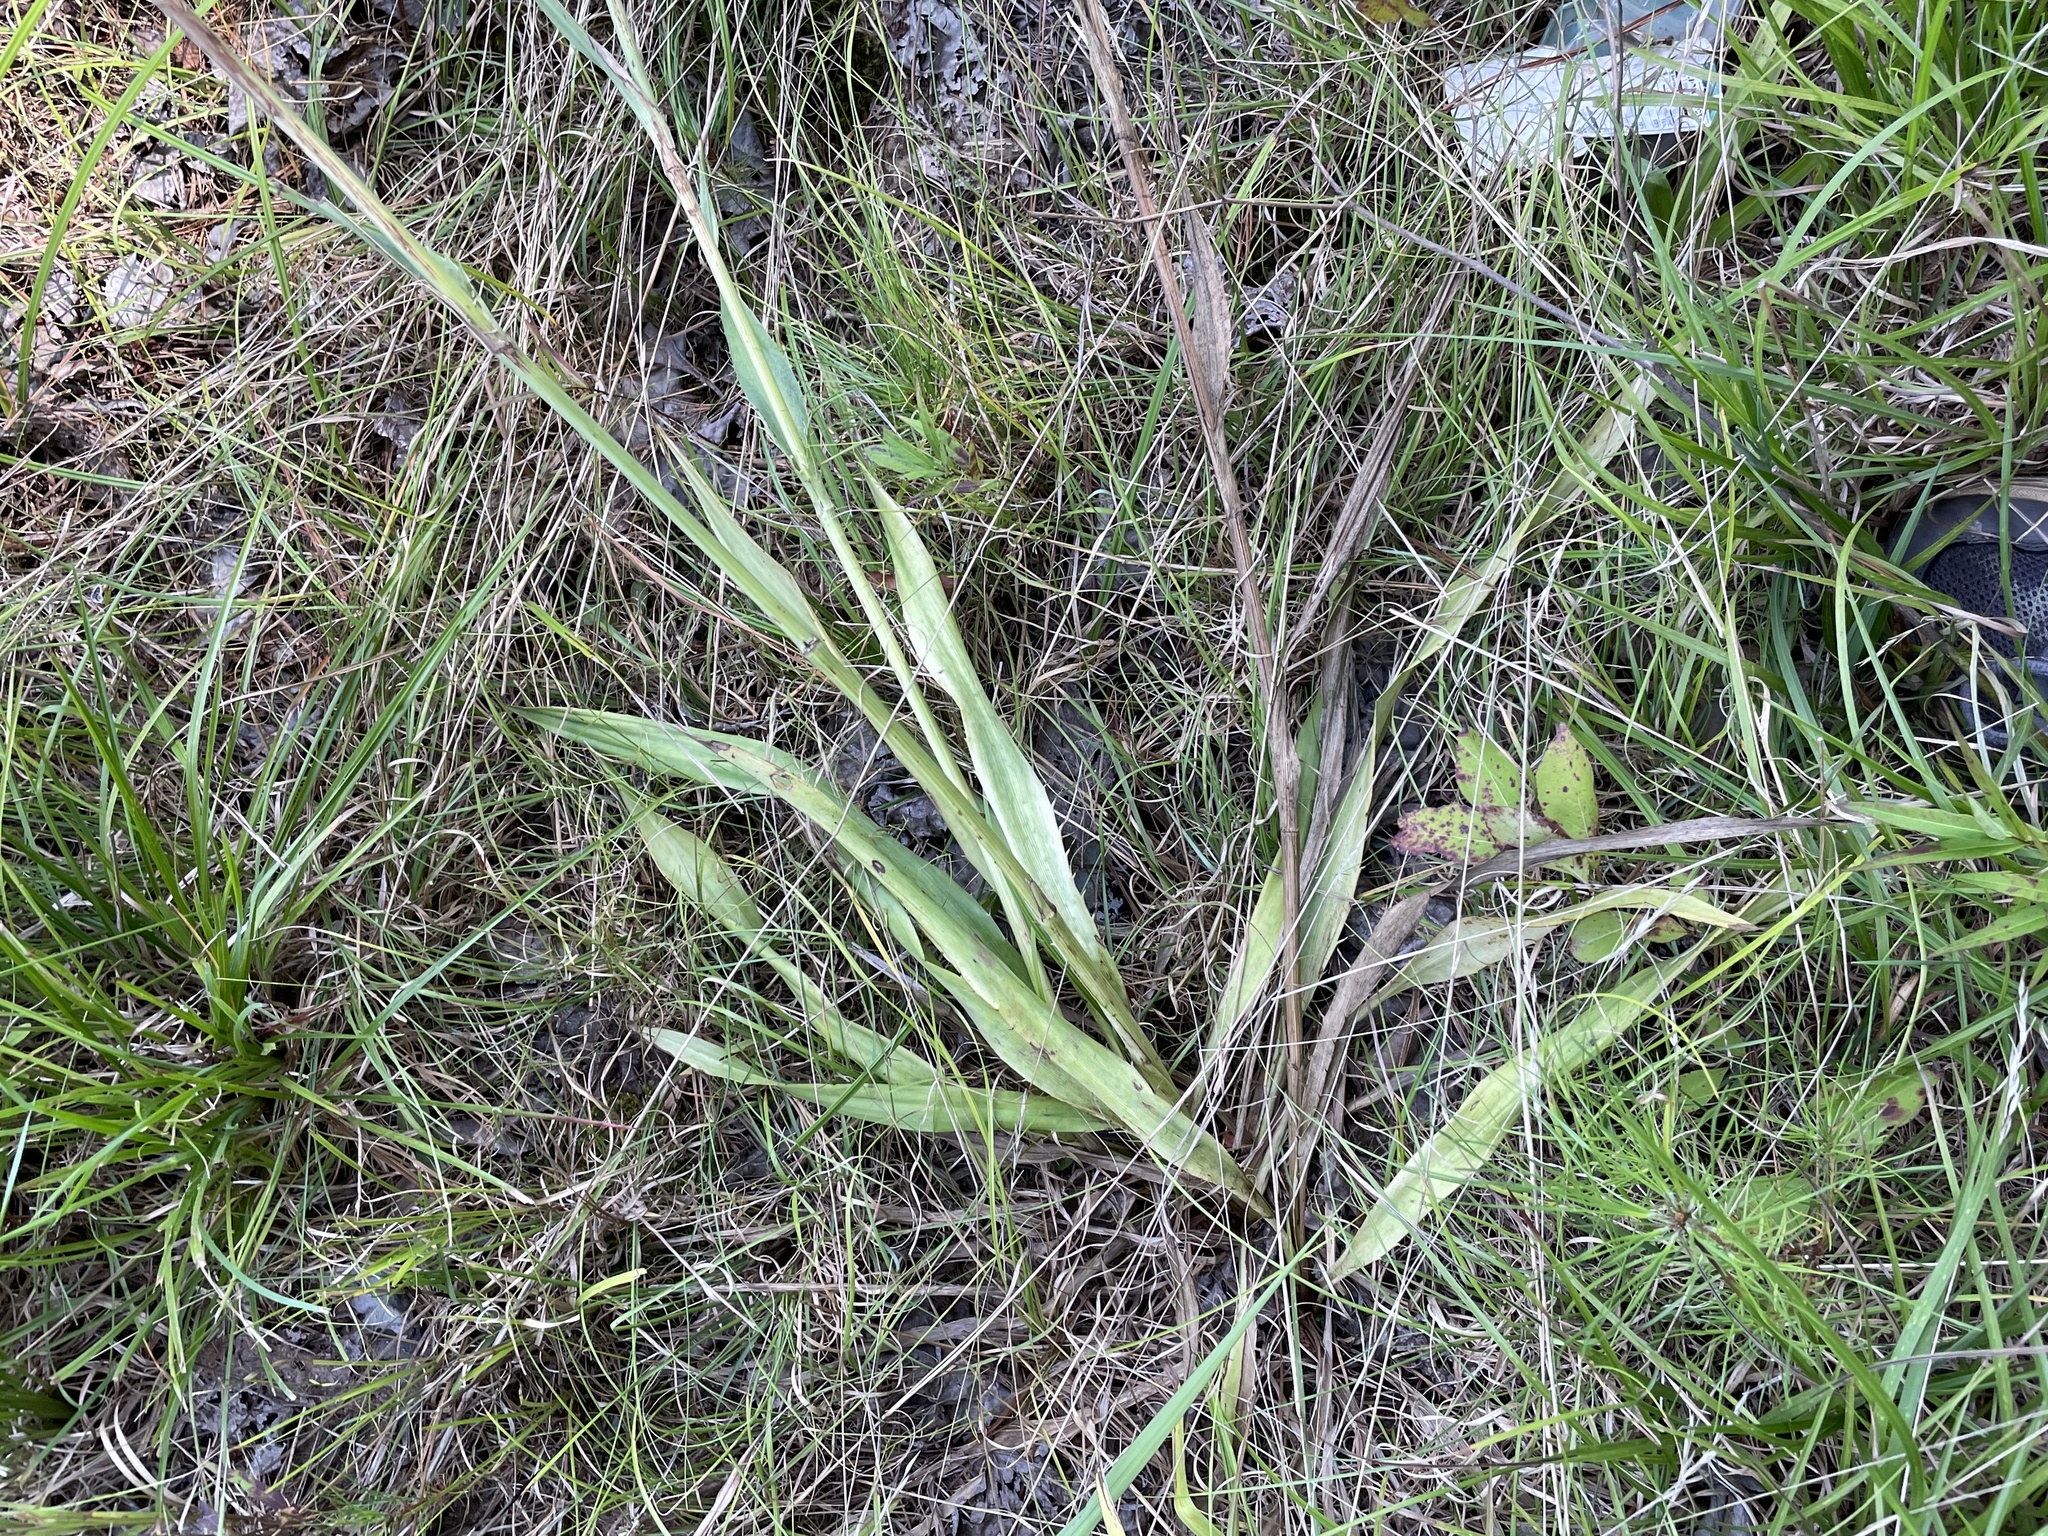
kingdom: Plantae
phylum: Tracheophyta
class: Magnoliopsida
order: Apiales
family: Apiaceae
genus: Eryngium
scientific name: Eryngium yuccifolium
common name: Button eryngo
